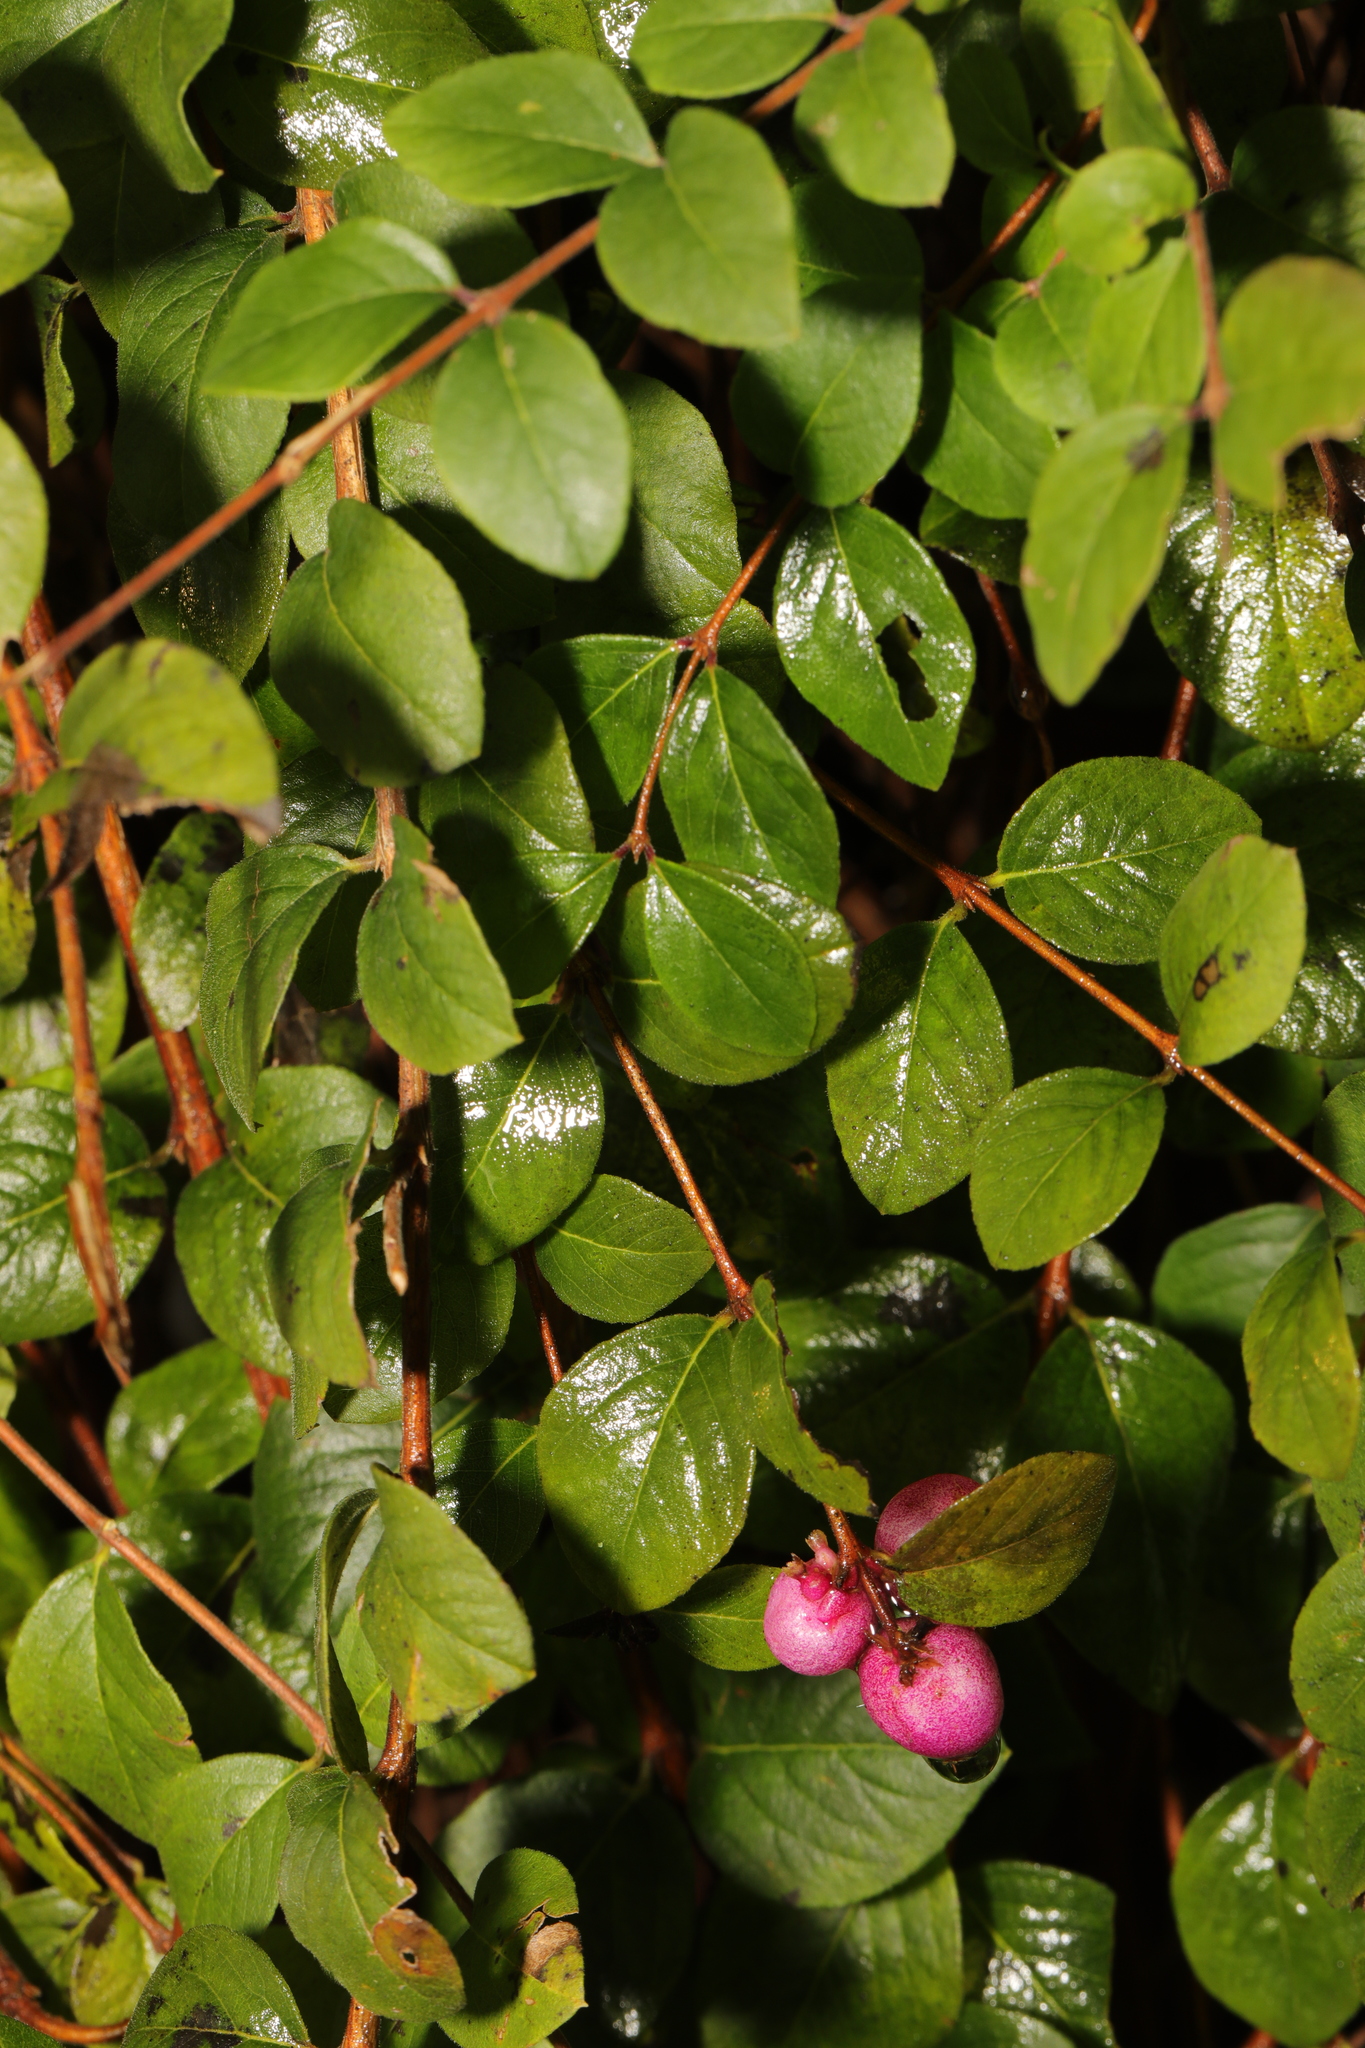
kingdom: Plantae
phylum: Tracheophyta
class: Magnoliopsida
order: Dipsacales
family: Caprifoliaceae
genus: Symphoricarpos
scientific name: Symphoricarpos chenaultii
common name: Hybrid coralberry
